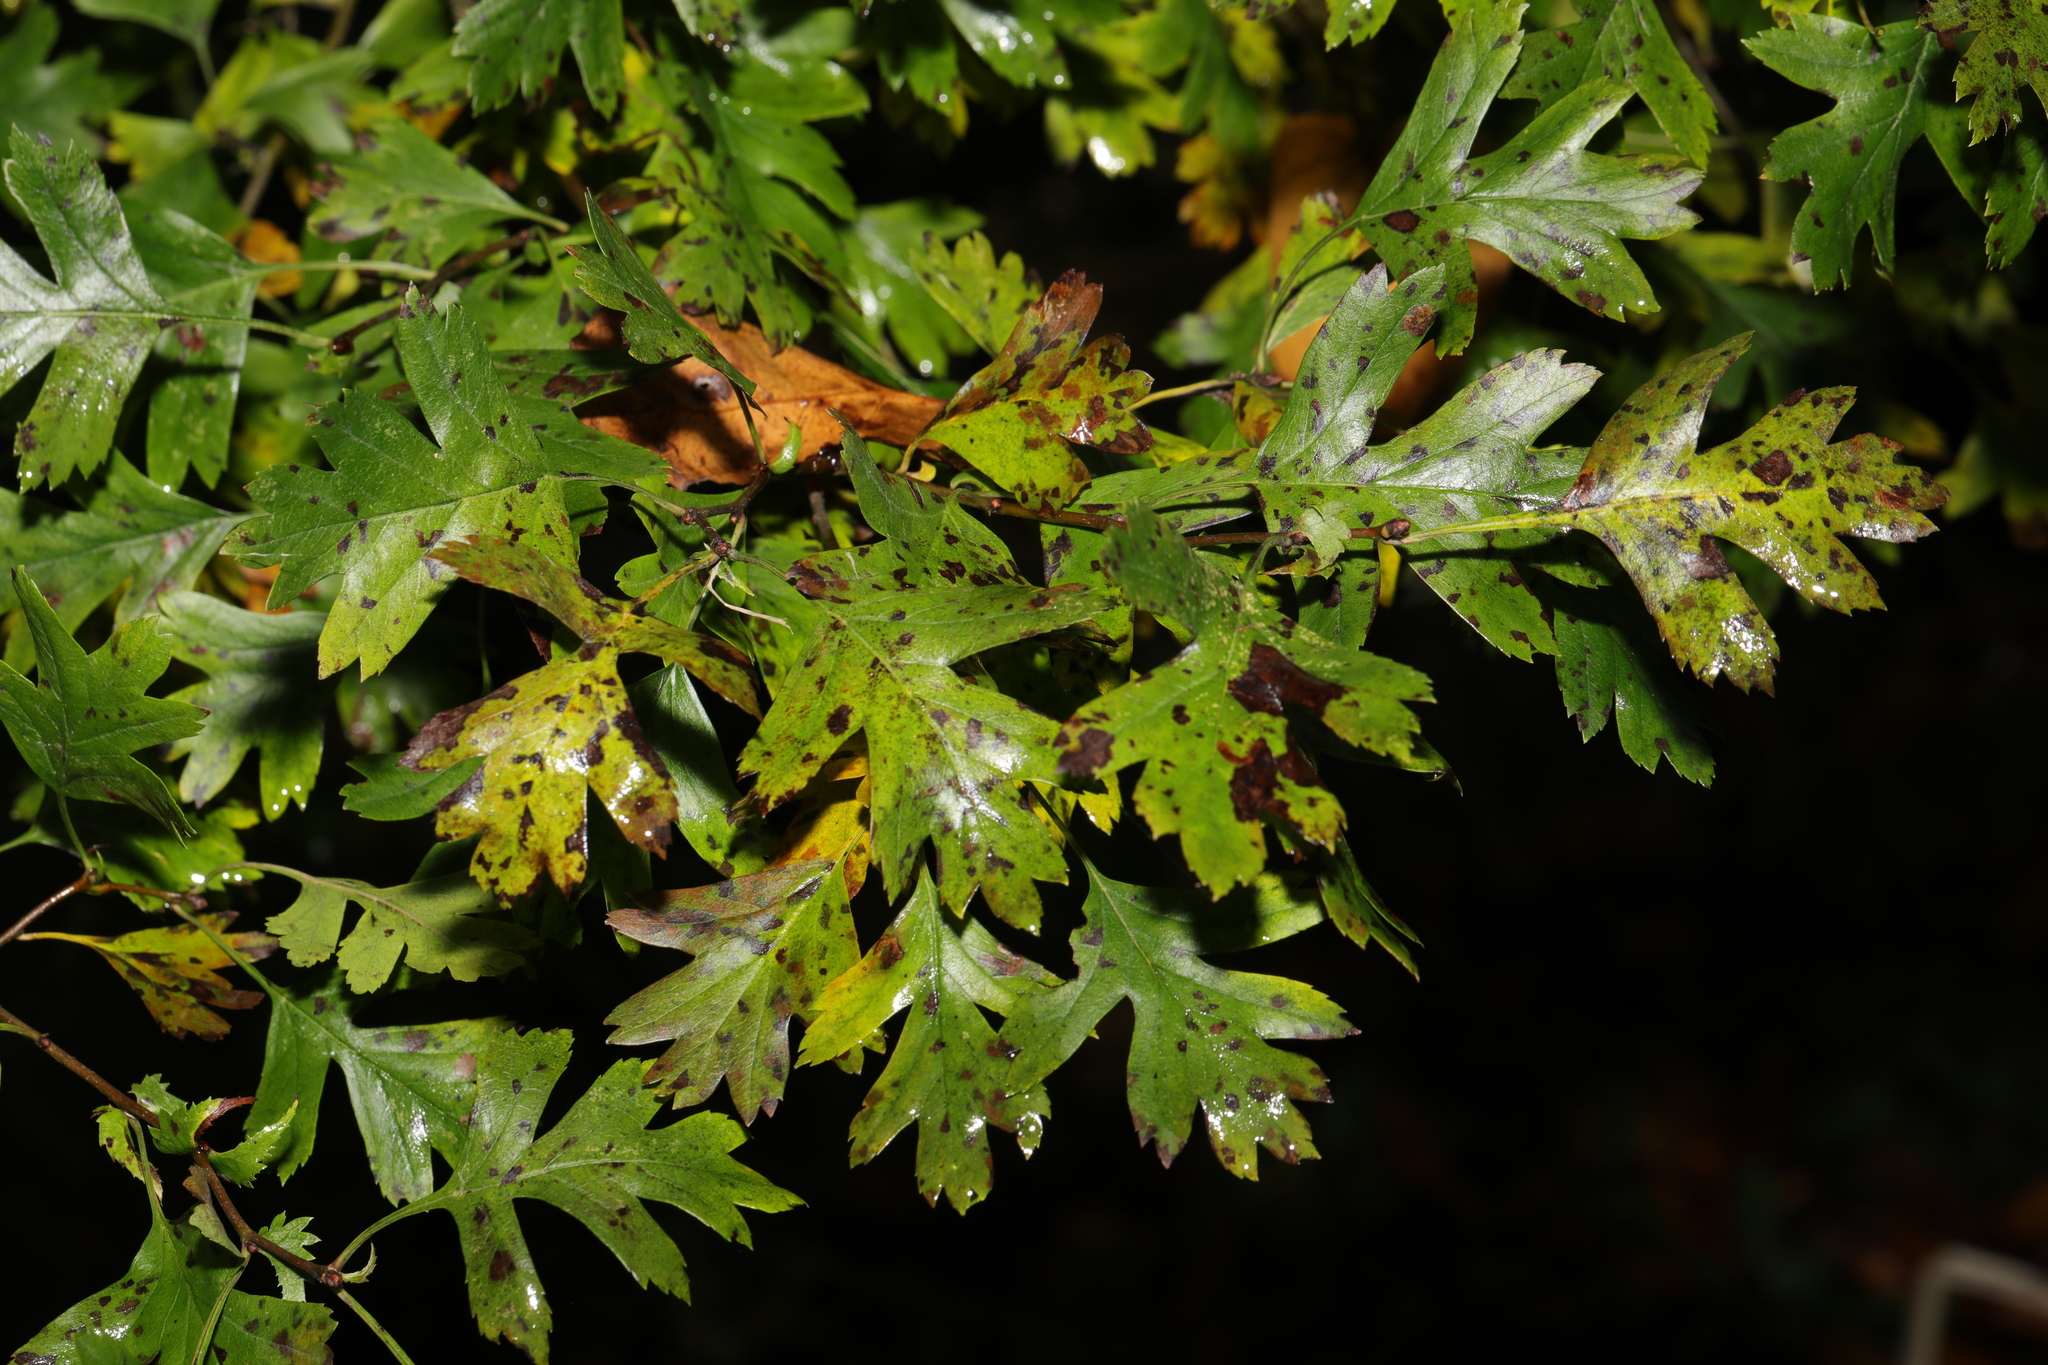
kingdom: Plantae
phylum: Tracheophyta
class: Magnoliopsida
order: Rosales
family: Rosaceae
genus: Crataegus
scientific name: Crataegus monogyna
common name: Hawthorn
